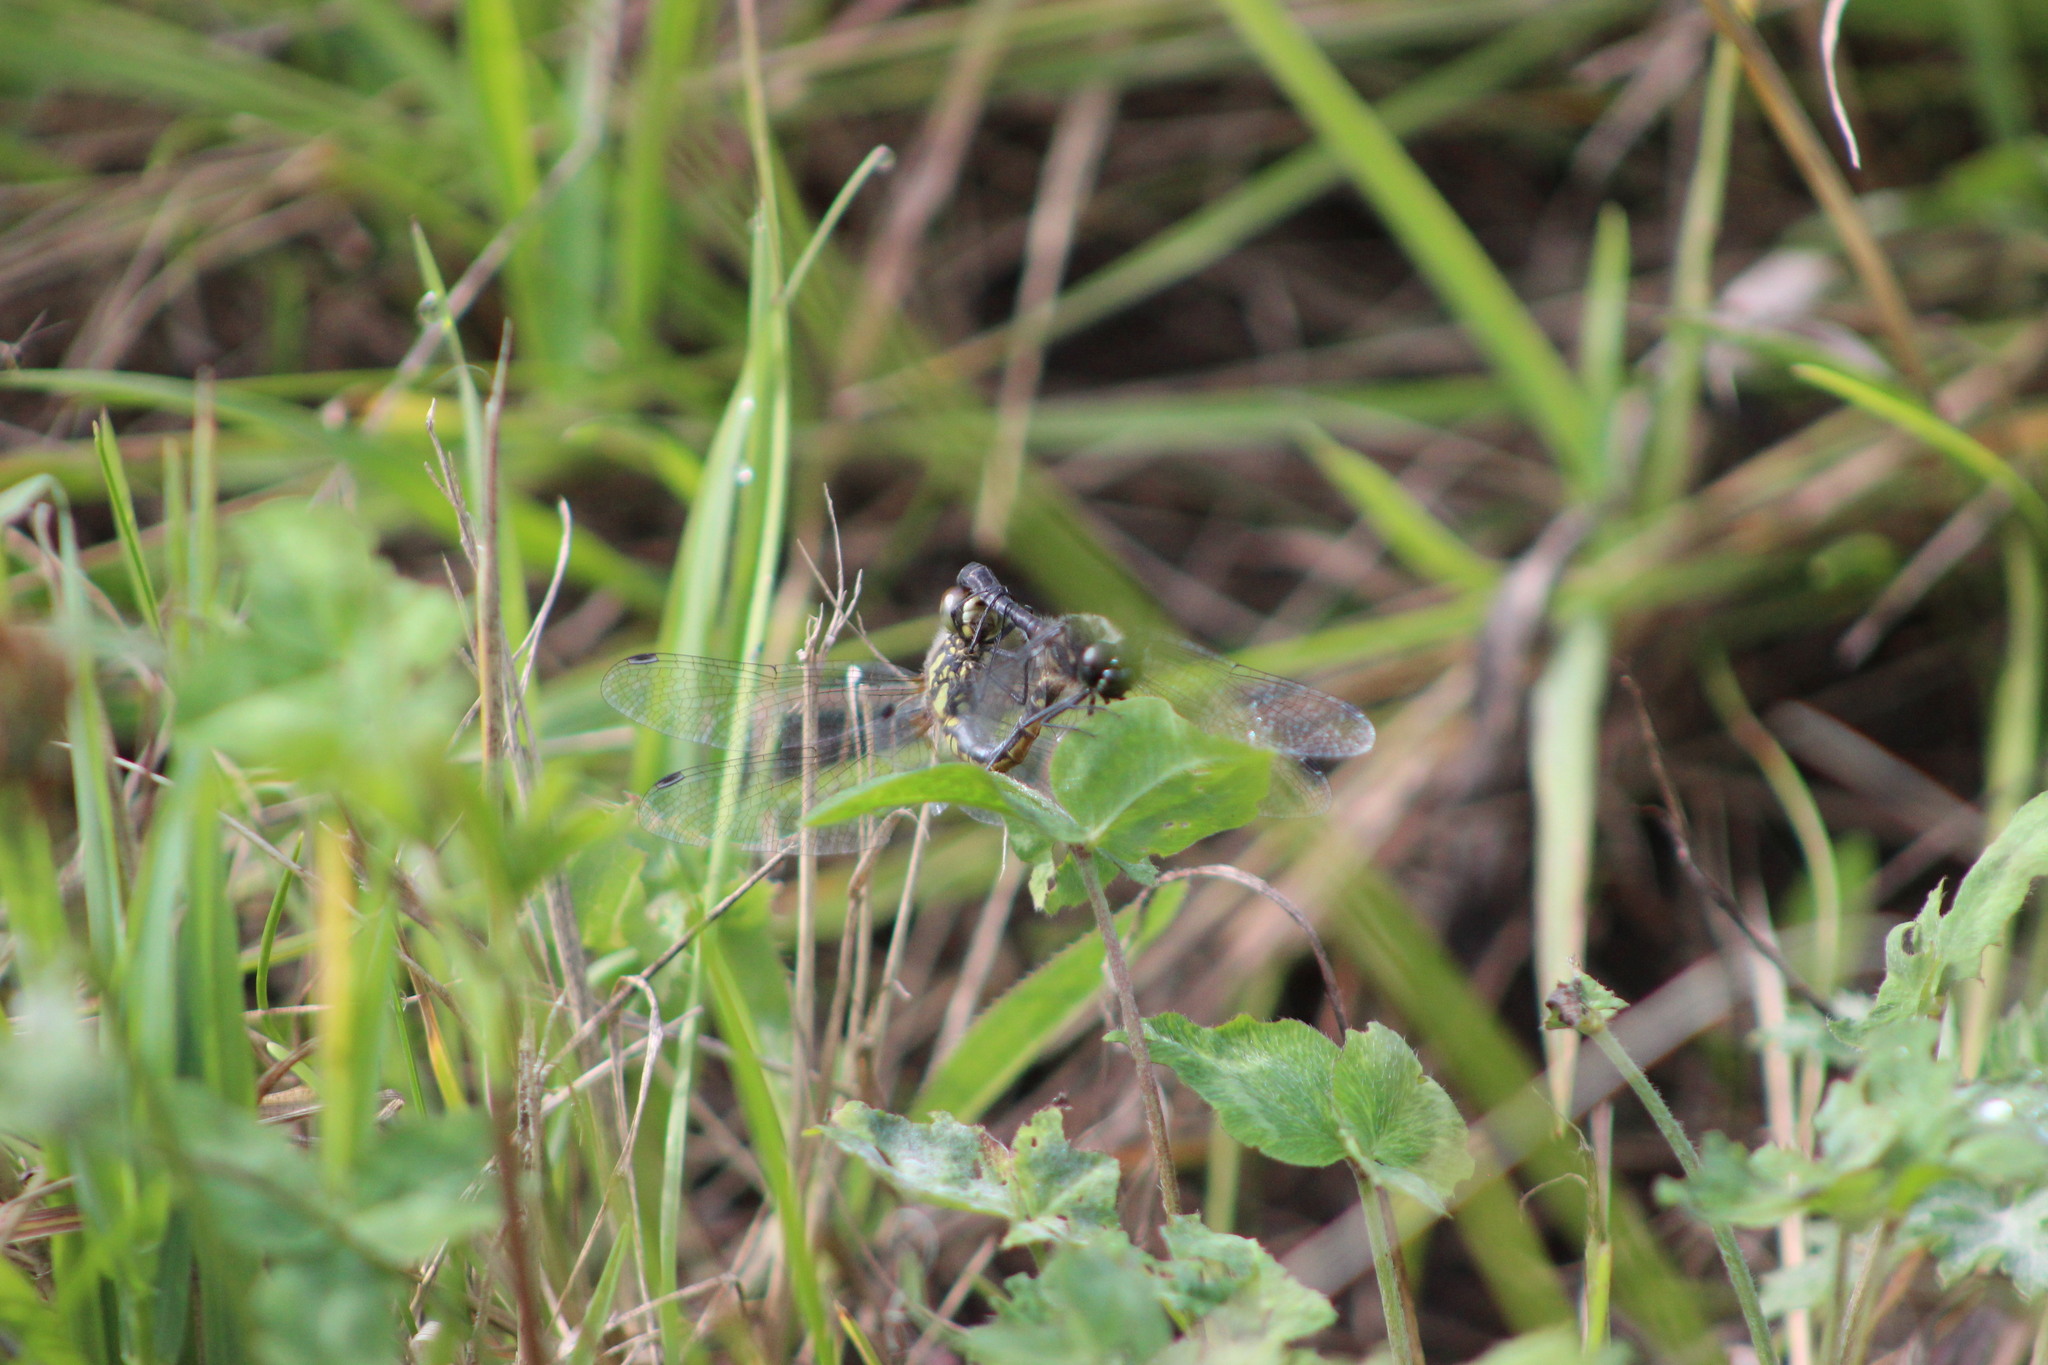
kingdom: Animalia
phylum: Arthropoda
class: Insecta
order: Odonata
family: Libellulidae
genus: Sympetrum
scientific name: Sympetrum danae
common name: Black darter
